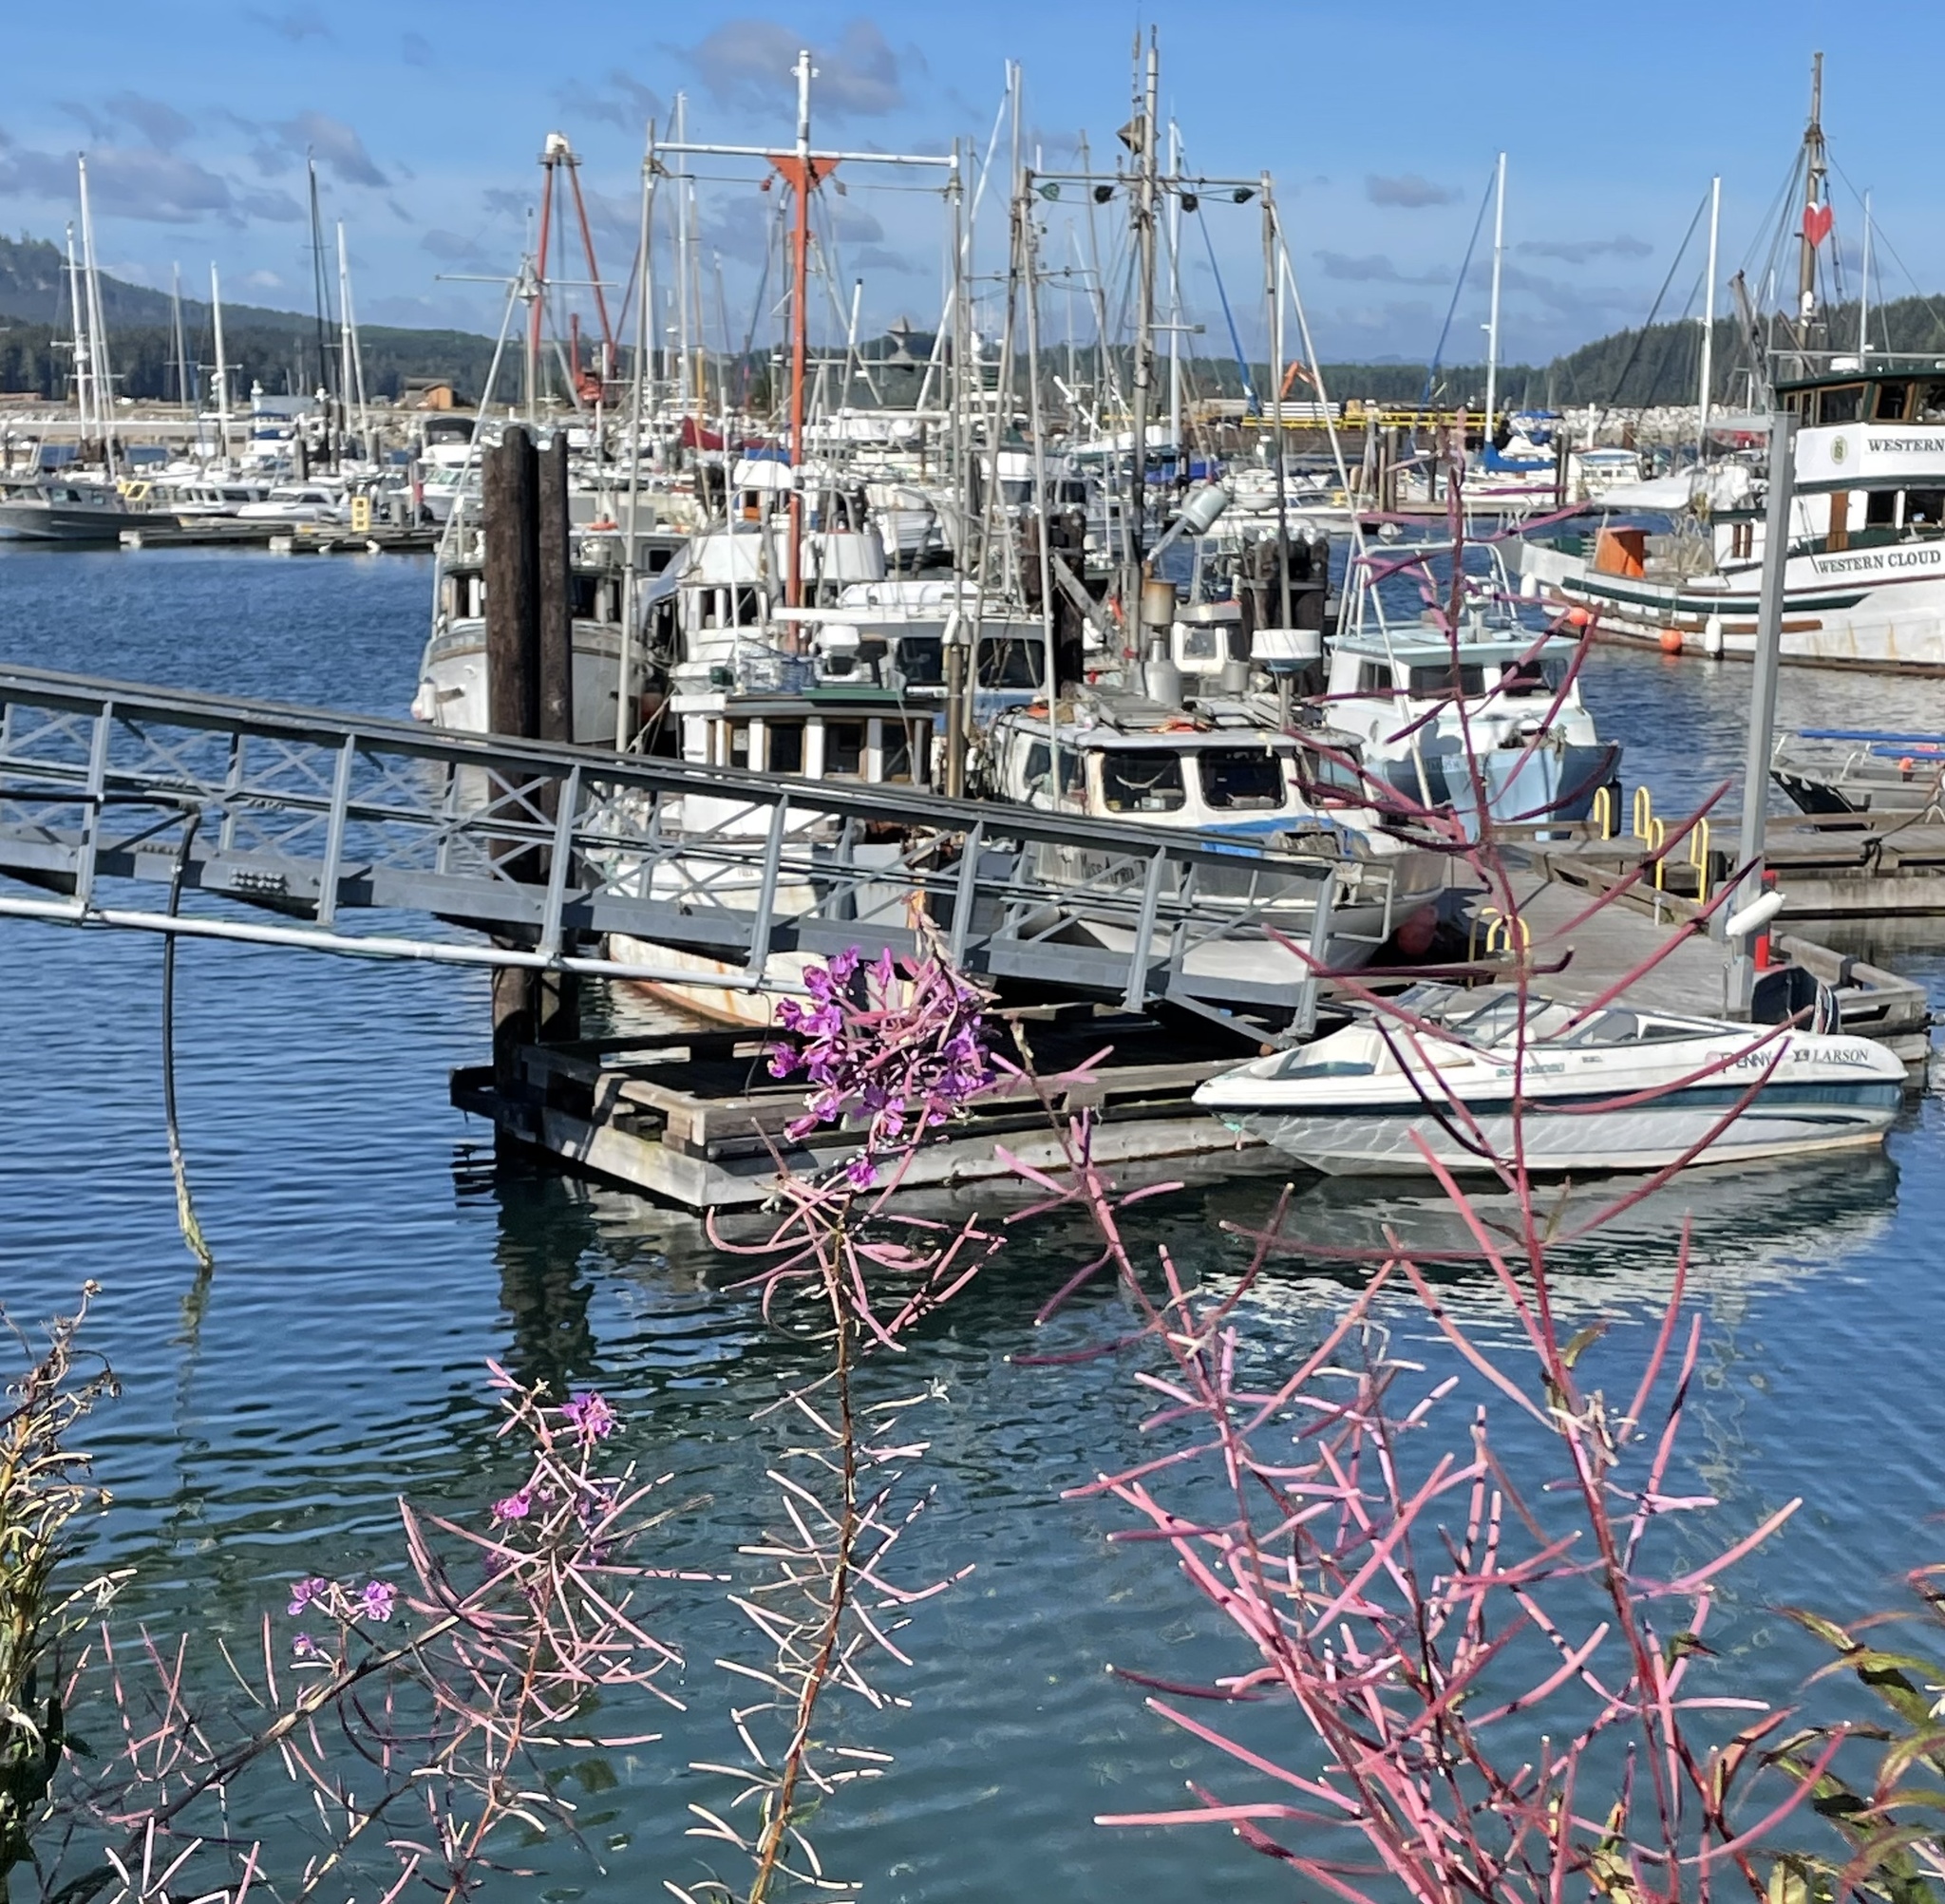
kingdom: Plantae
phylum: Tracheophyta
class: Magnoliopsida
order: Myrtales
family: Onagraceae
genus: Chamaenerion
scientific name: Chamaenerion angustifolium
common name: Fireweed
